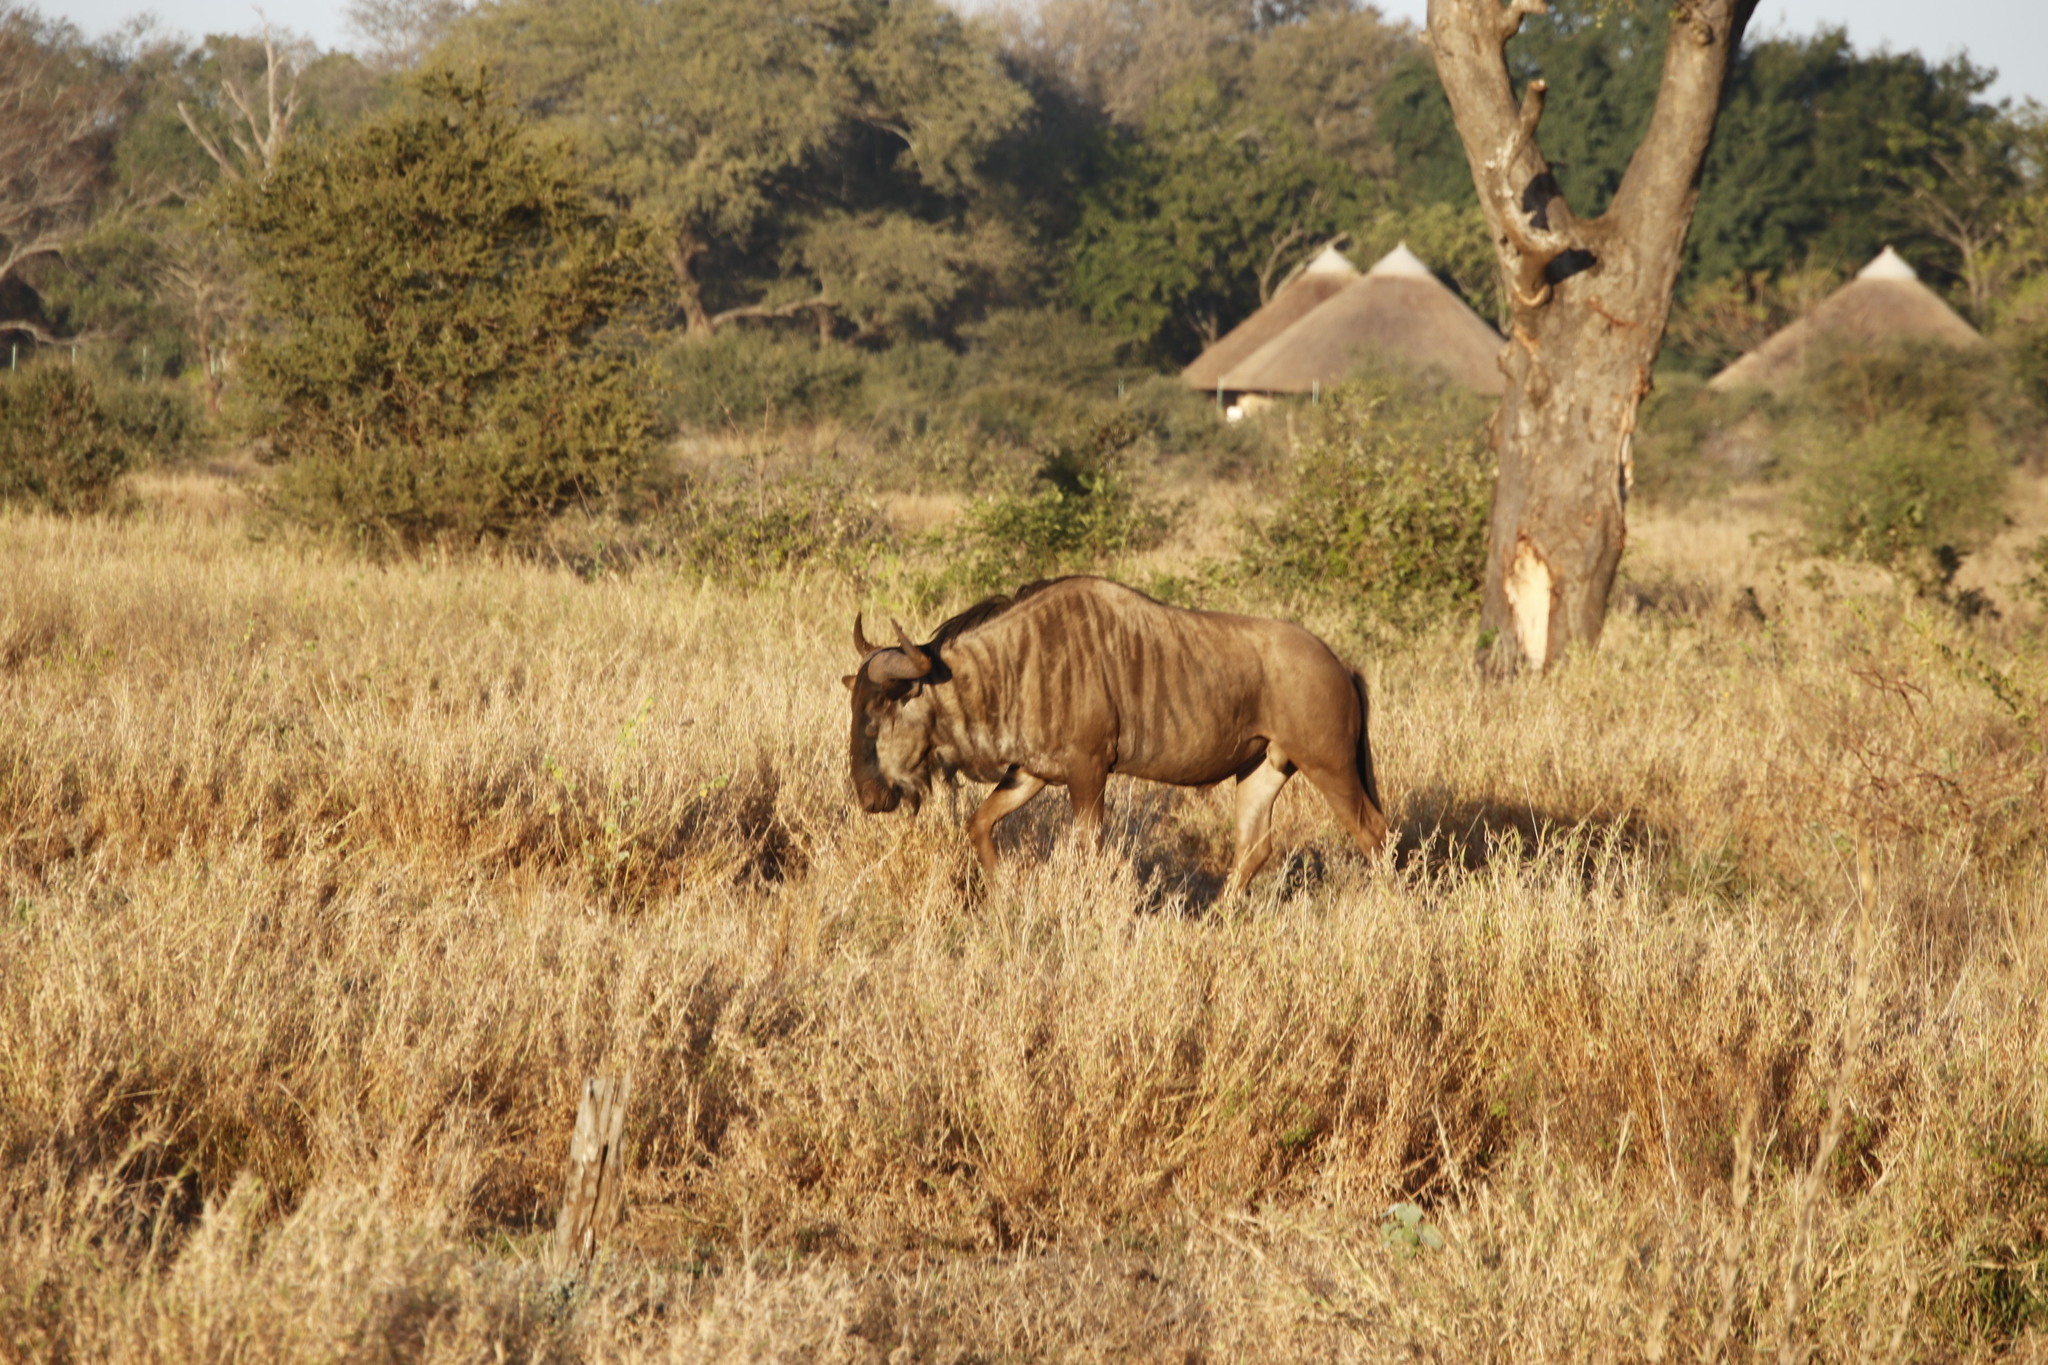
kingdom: Animalia
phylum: Chordata
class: Mammalia
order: Artiodactyla
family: Bovidae
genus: Connochaetes
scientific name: Connochaetes taurinus
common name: Blue wildebeest
